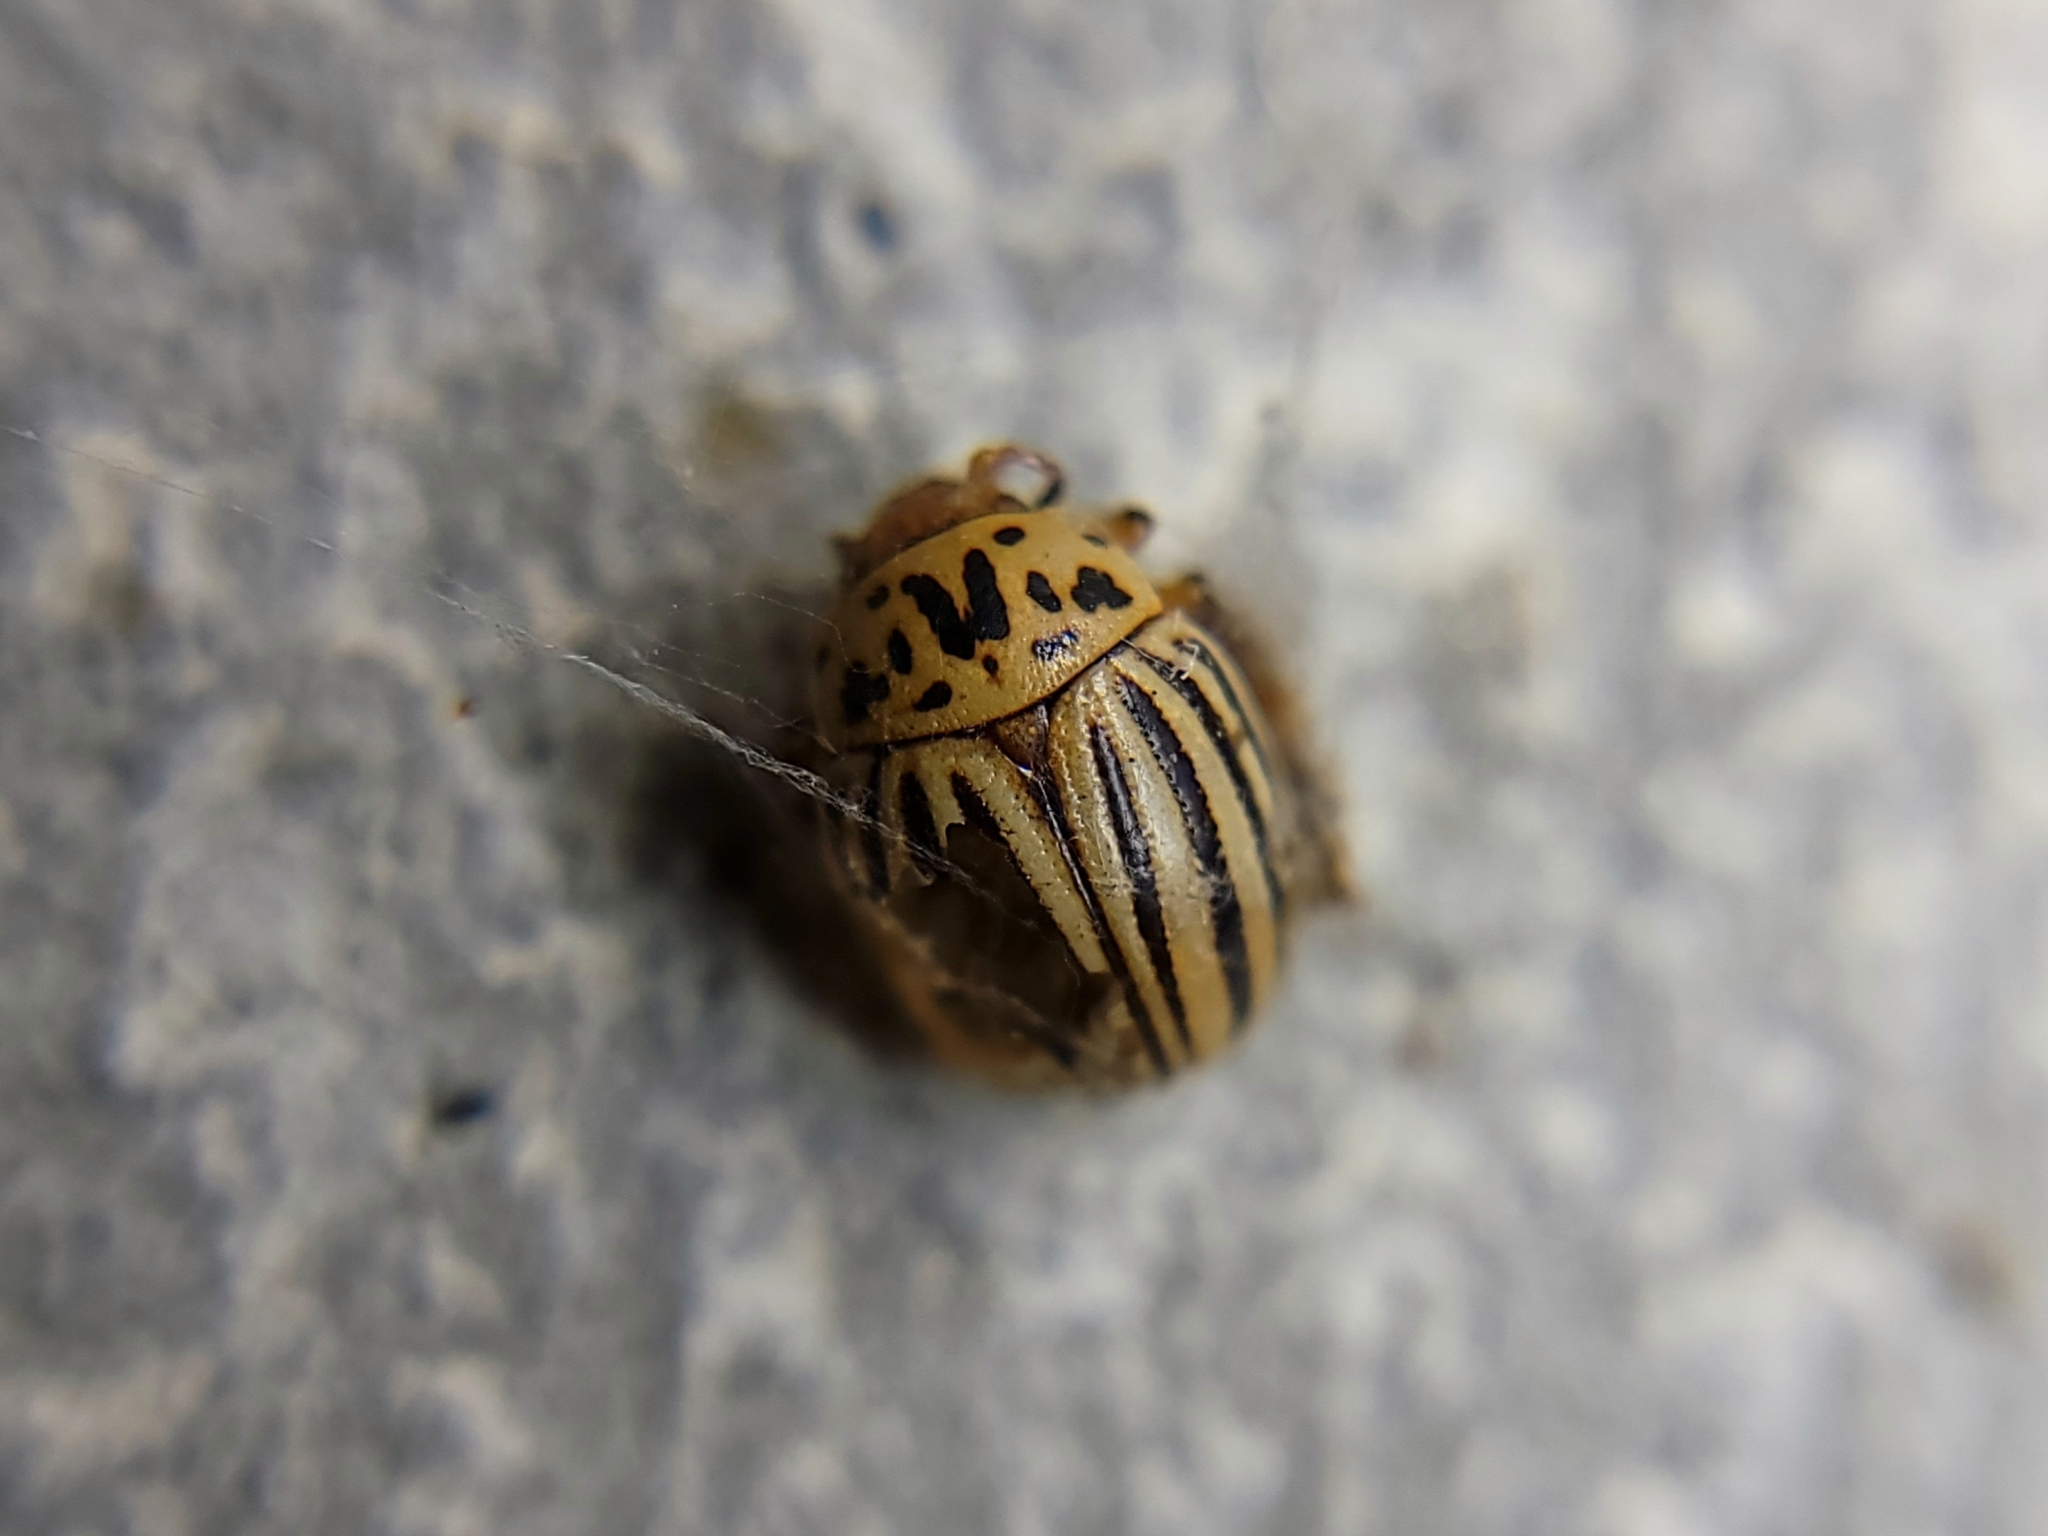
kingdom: Animalia
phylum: Arthropoda
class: Insecta
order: Coleoptera
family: Chrysomelidae
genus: Leptinotarsa
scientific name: Leptinotarsa decemlineata
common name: Colorado potato beetle
